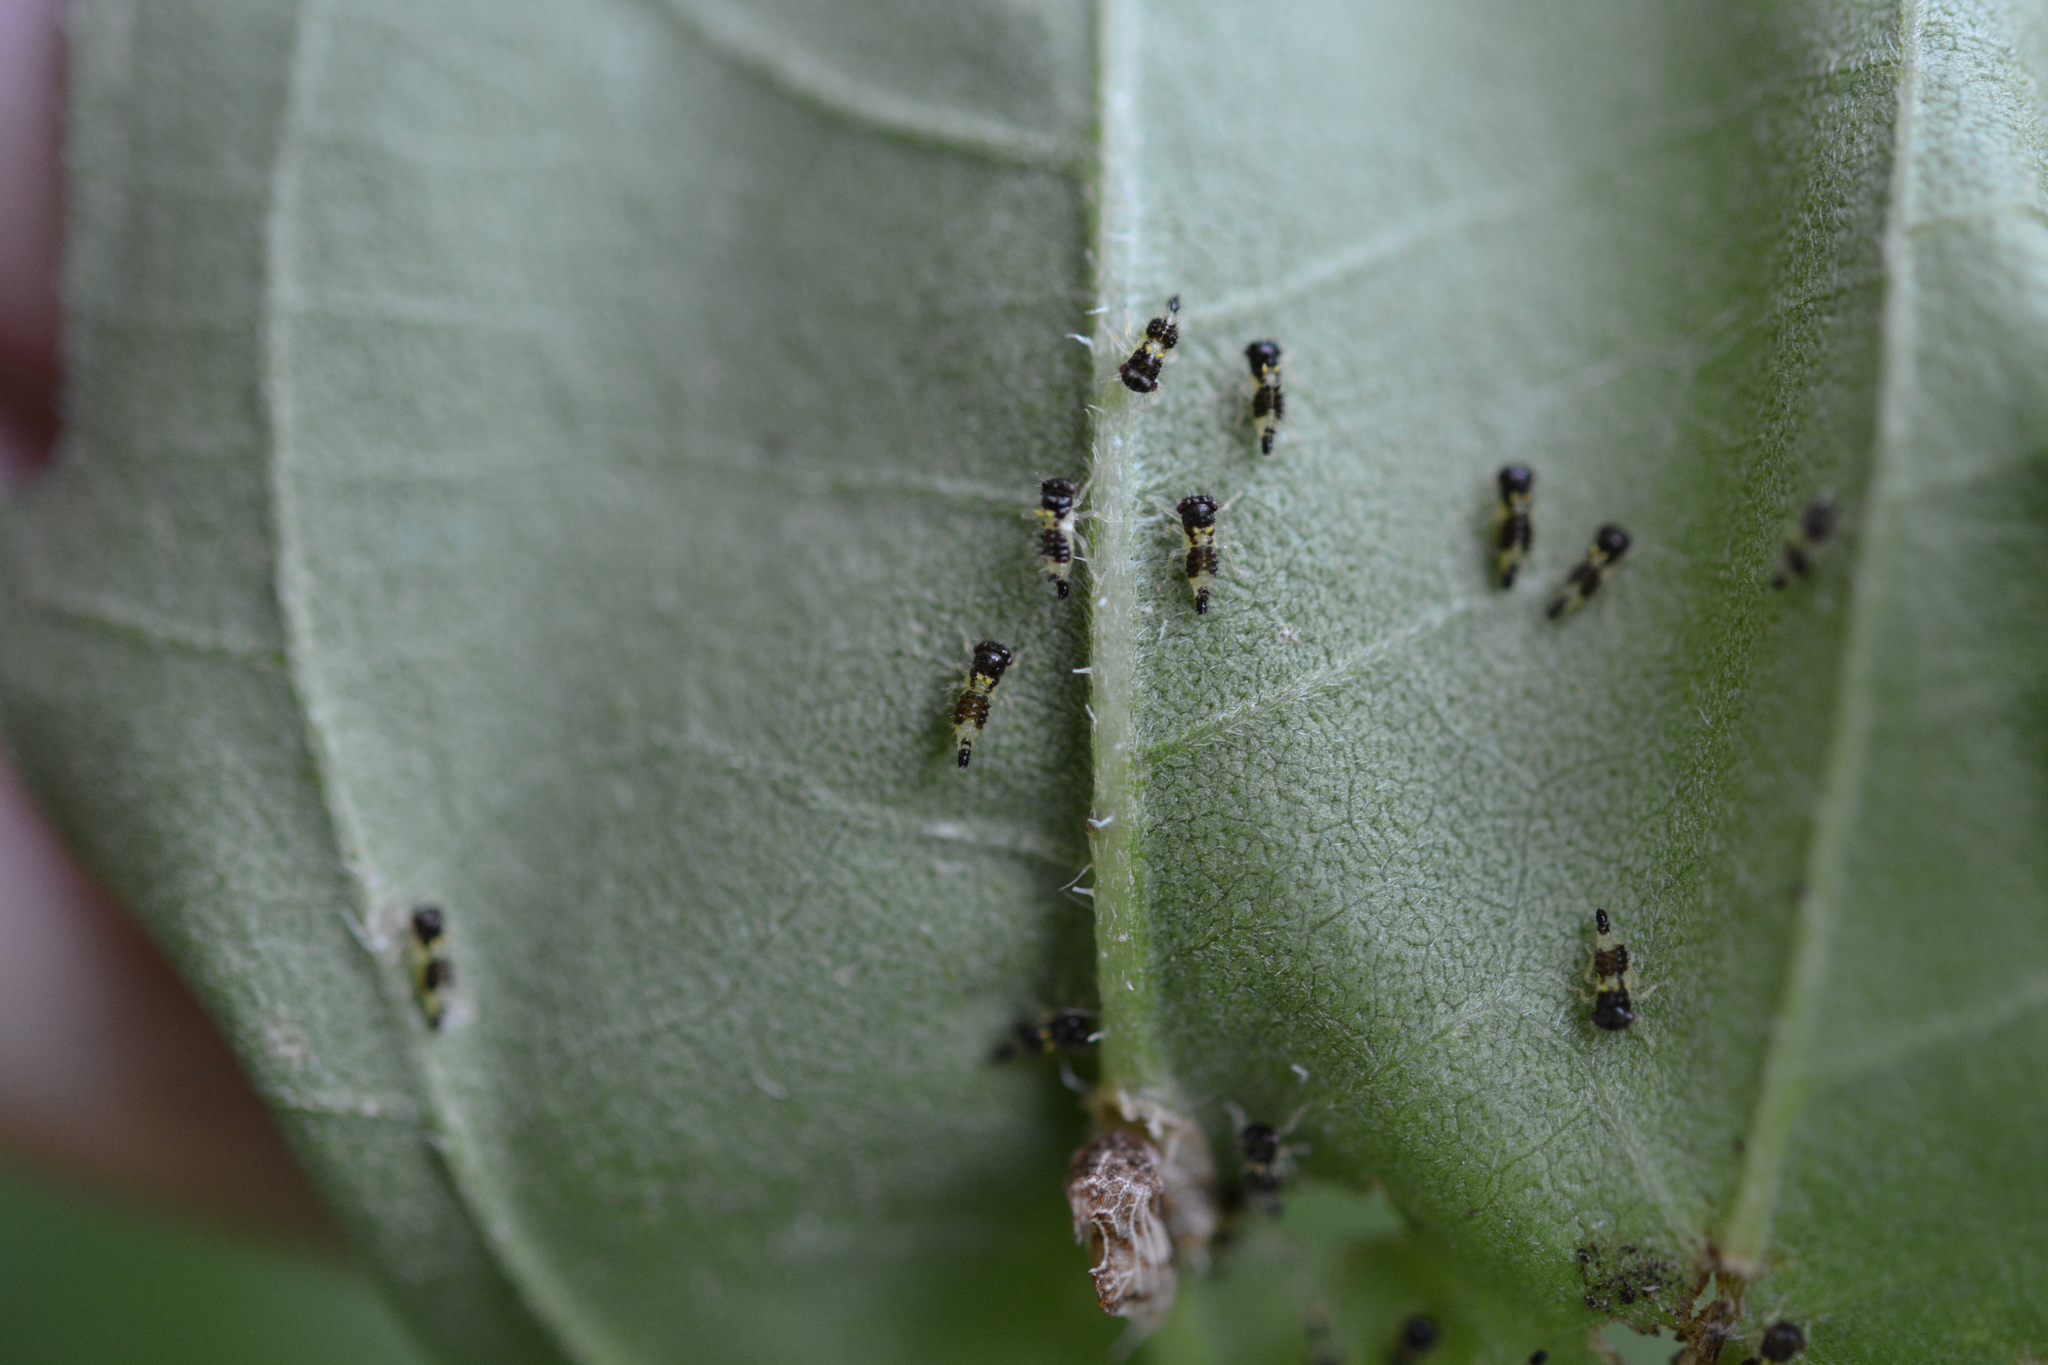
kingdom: Animalia
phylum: Arthropoda
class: Insecta
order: Hemiptera
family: Membracidae
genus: Entylia
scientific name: Entylia carinata
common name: Keeled treehopper
